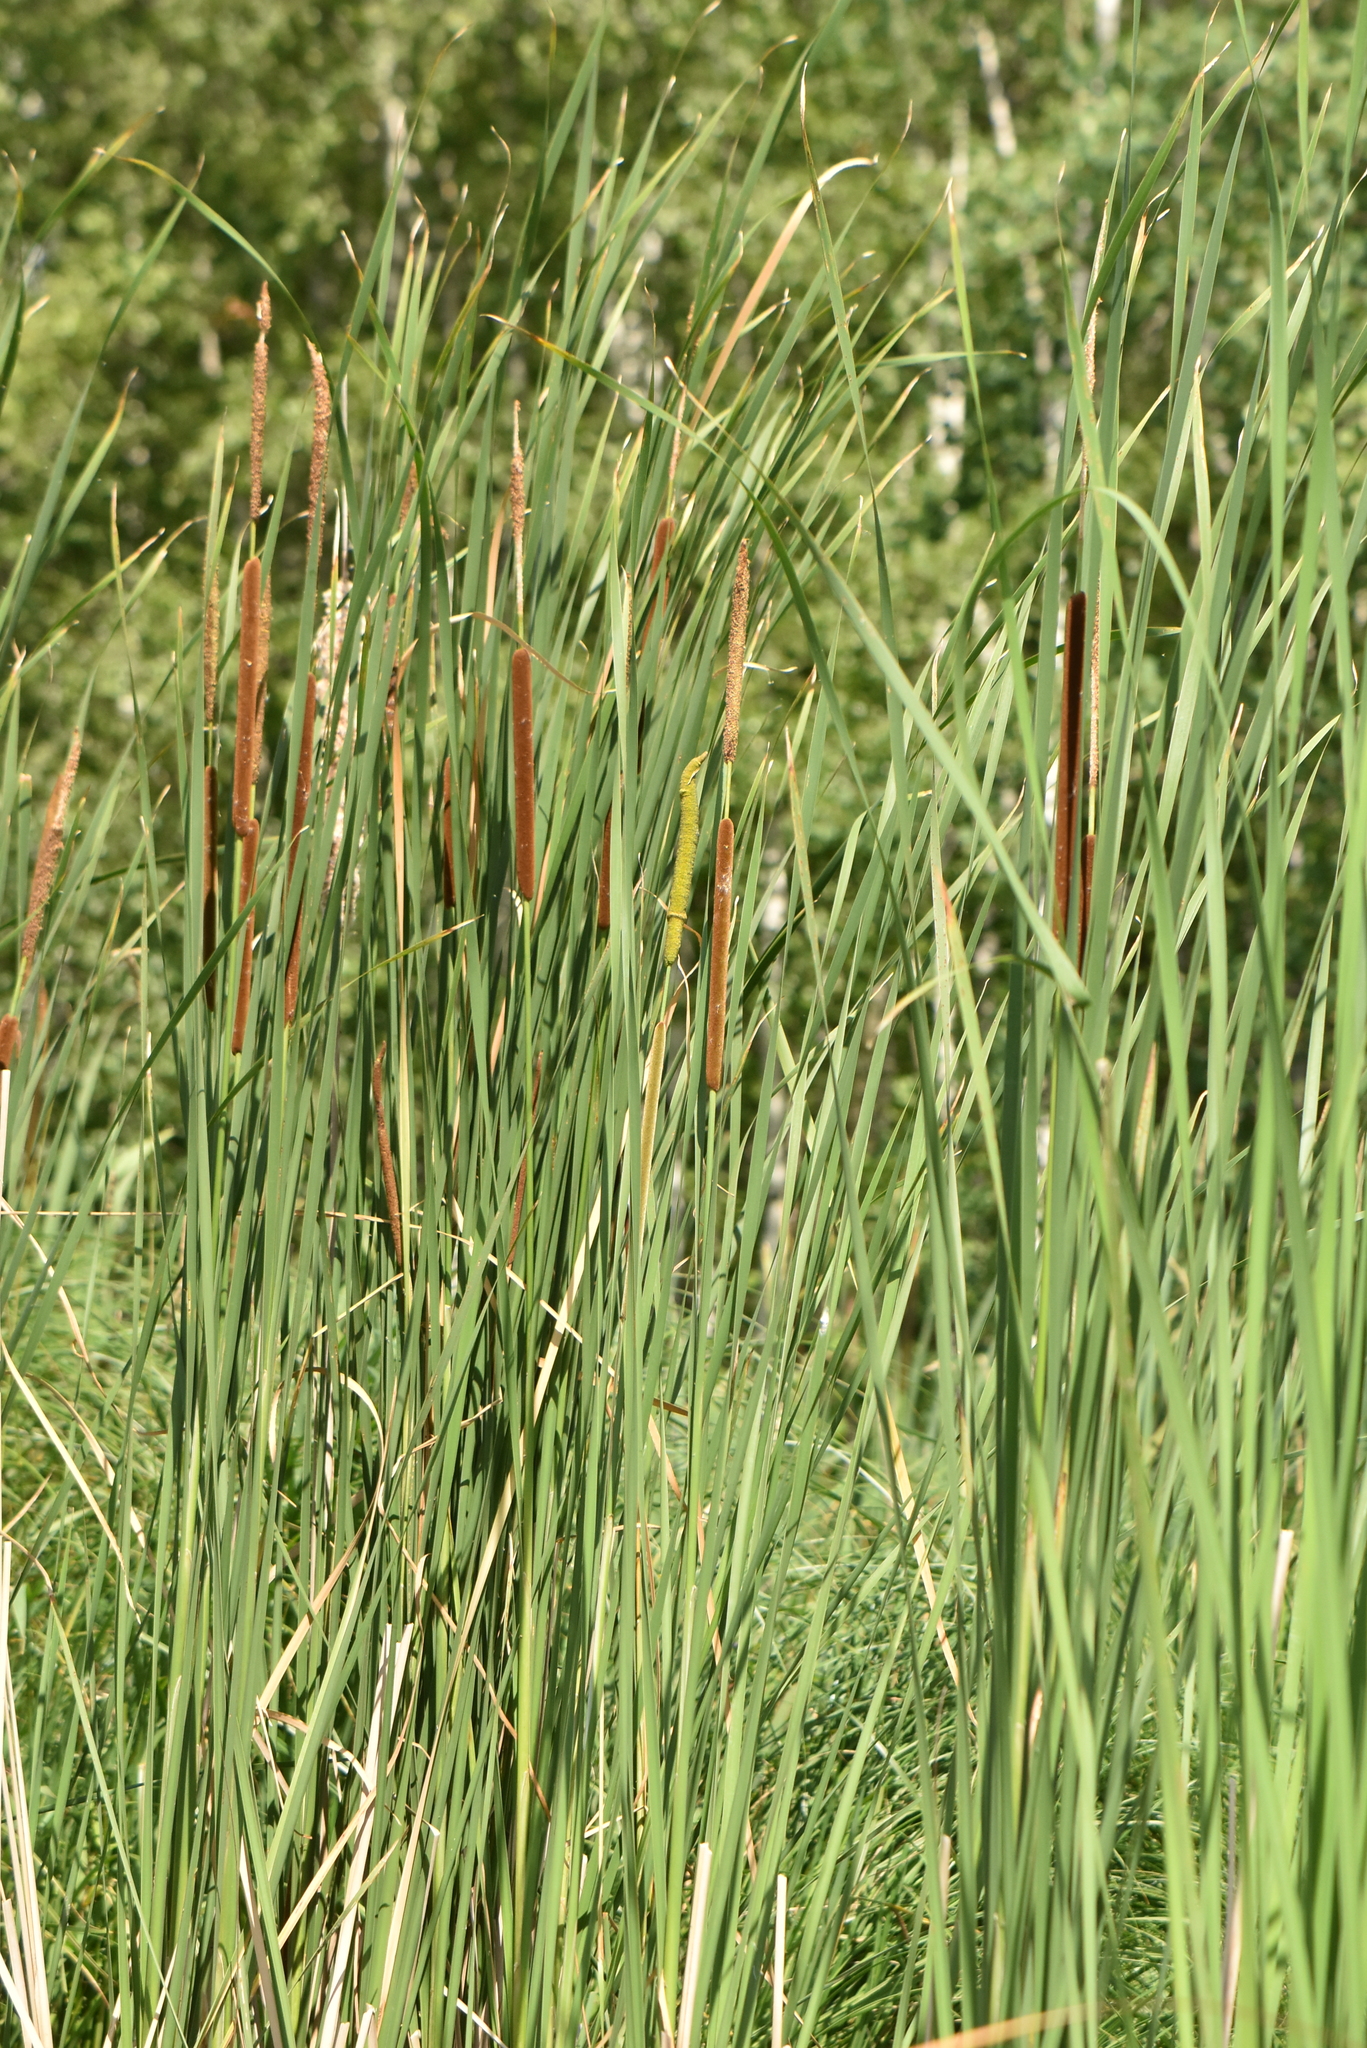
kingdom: Plantae
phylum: Tracheophyta
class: Liliopsida
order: Poales
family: Typhaceae
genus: Typha
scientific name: Typha angustifolia
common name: Lesser bulrush
